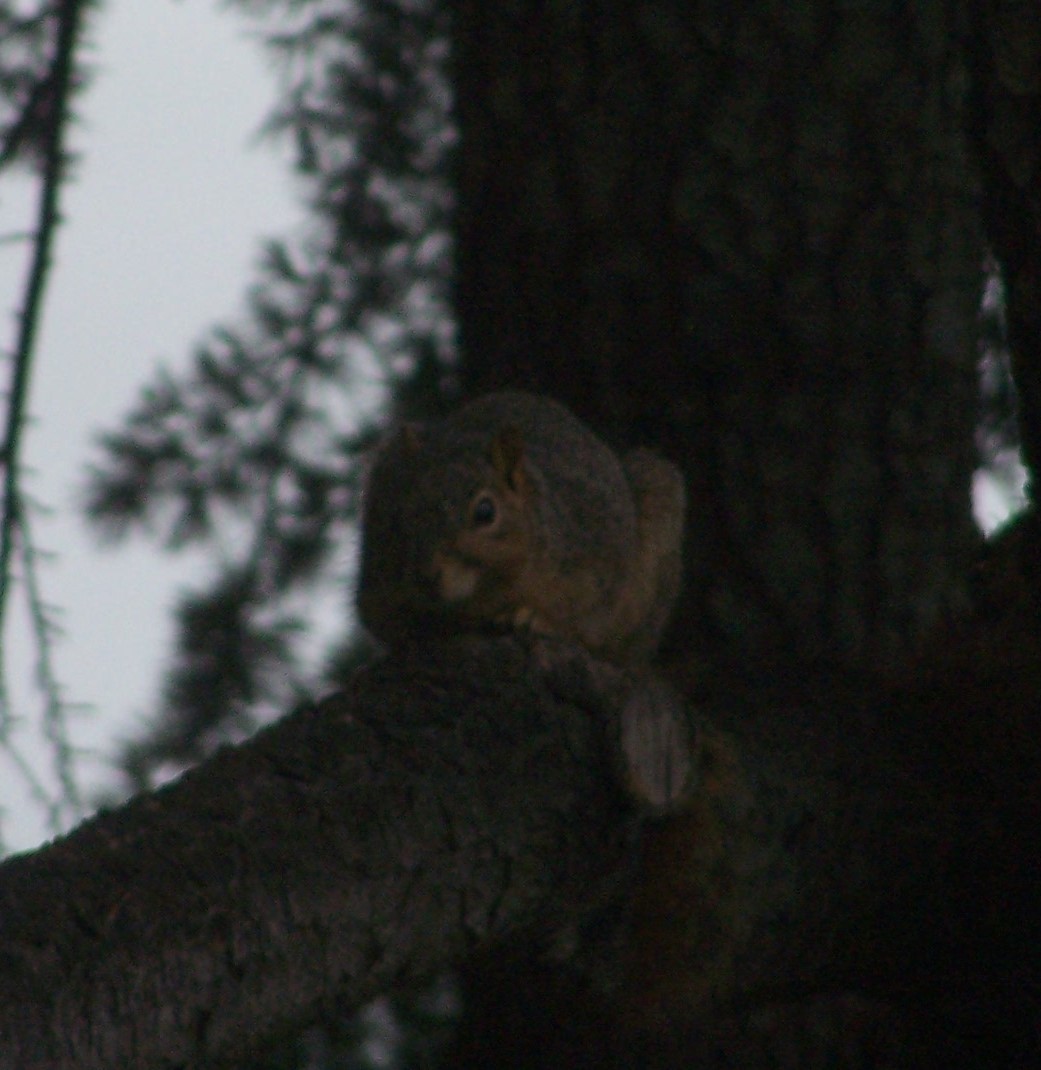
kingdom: Animalia
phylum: Chordata
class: Mammalia
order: Rodentia
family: Sciuridae
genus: Sciurus
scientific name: Sciurus niger
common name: Fox squirrel
